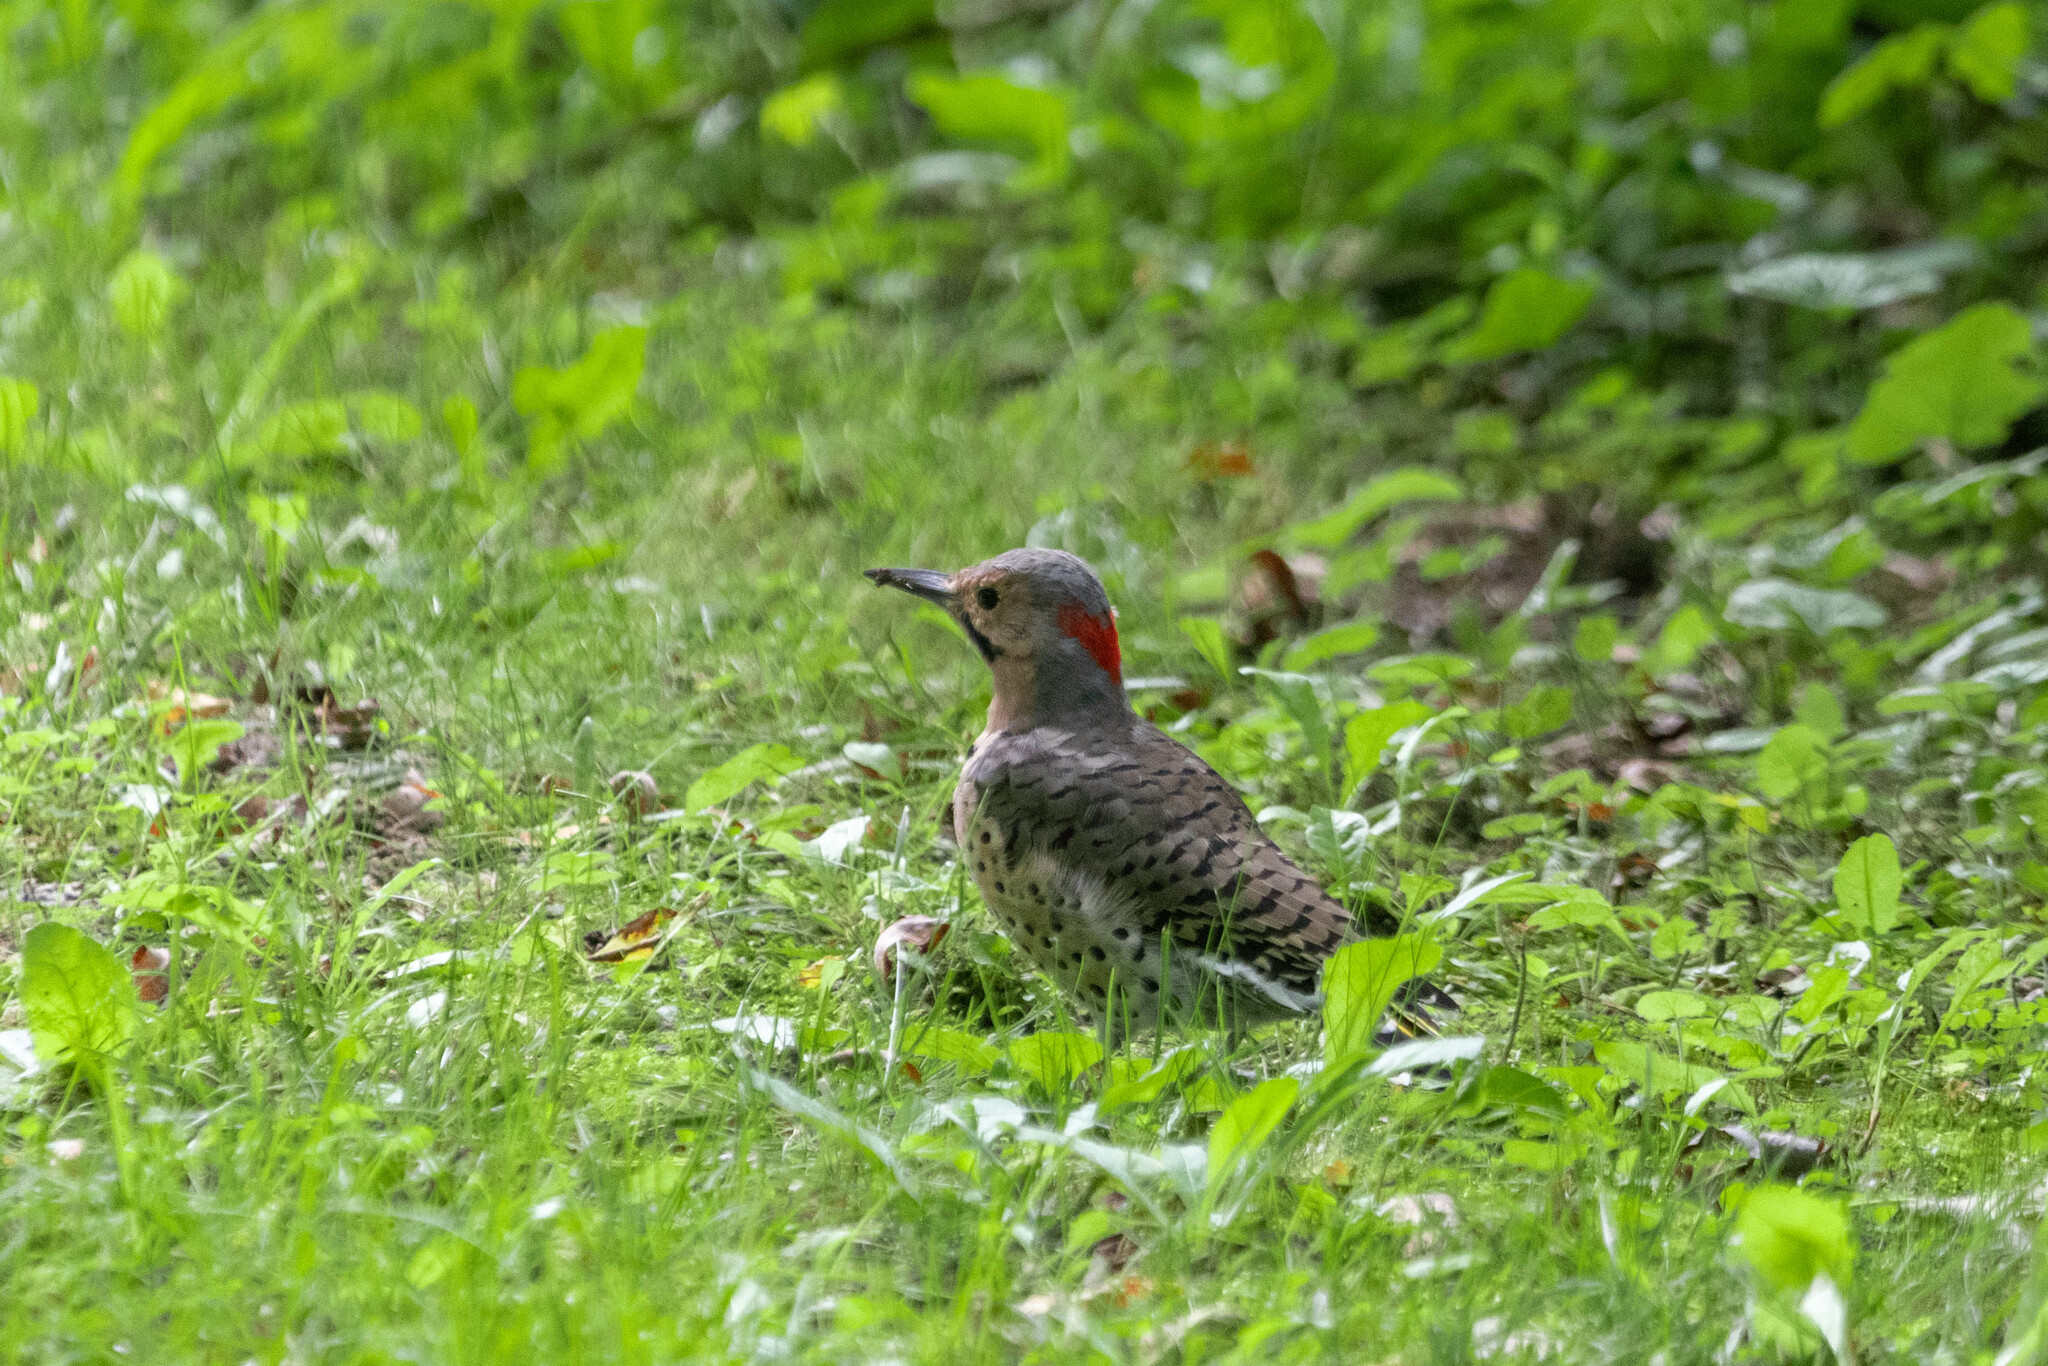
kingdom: Animalia
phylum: Chordata
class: Aves
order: Piciformes
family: Picidae
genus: Colaptes
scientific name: Colaptes auratus
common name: Northern flicker
